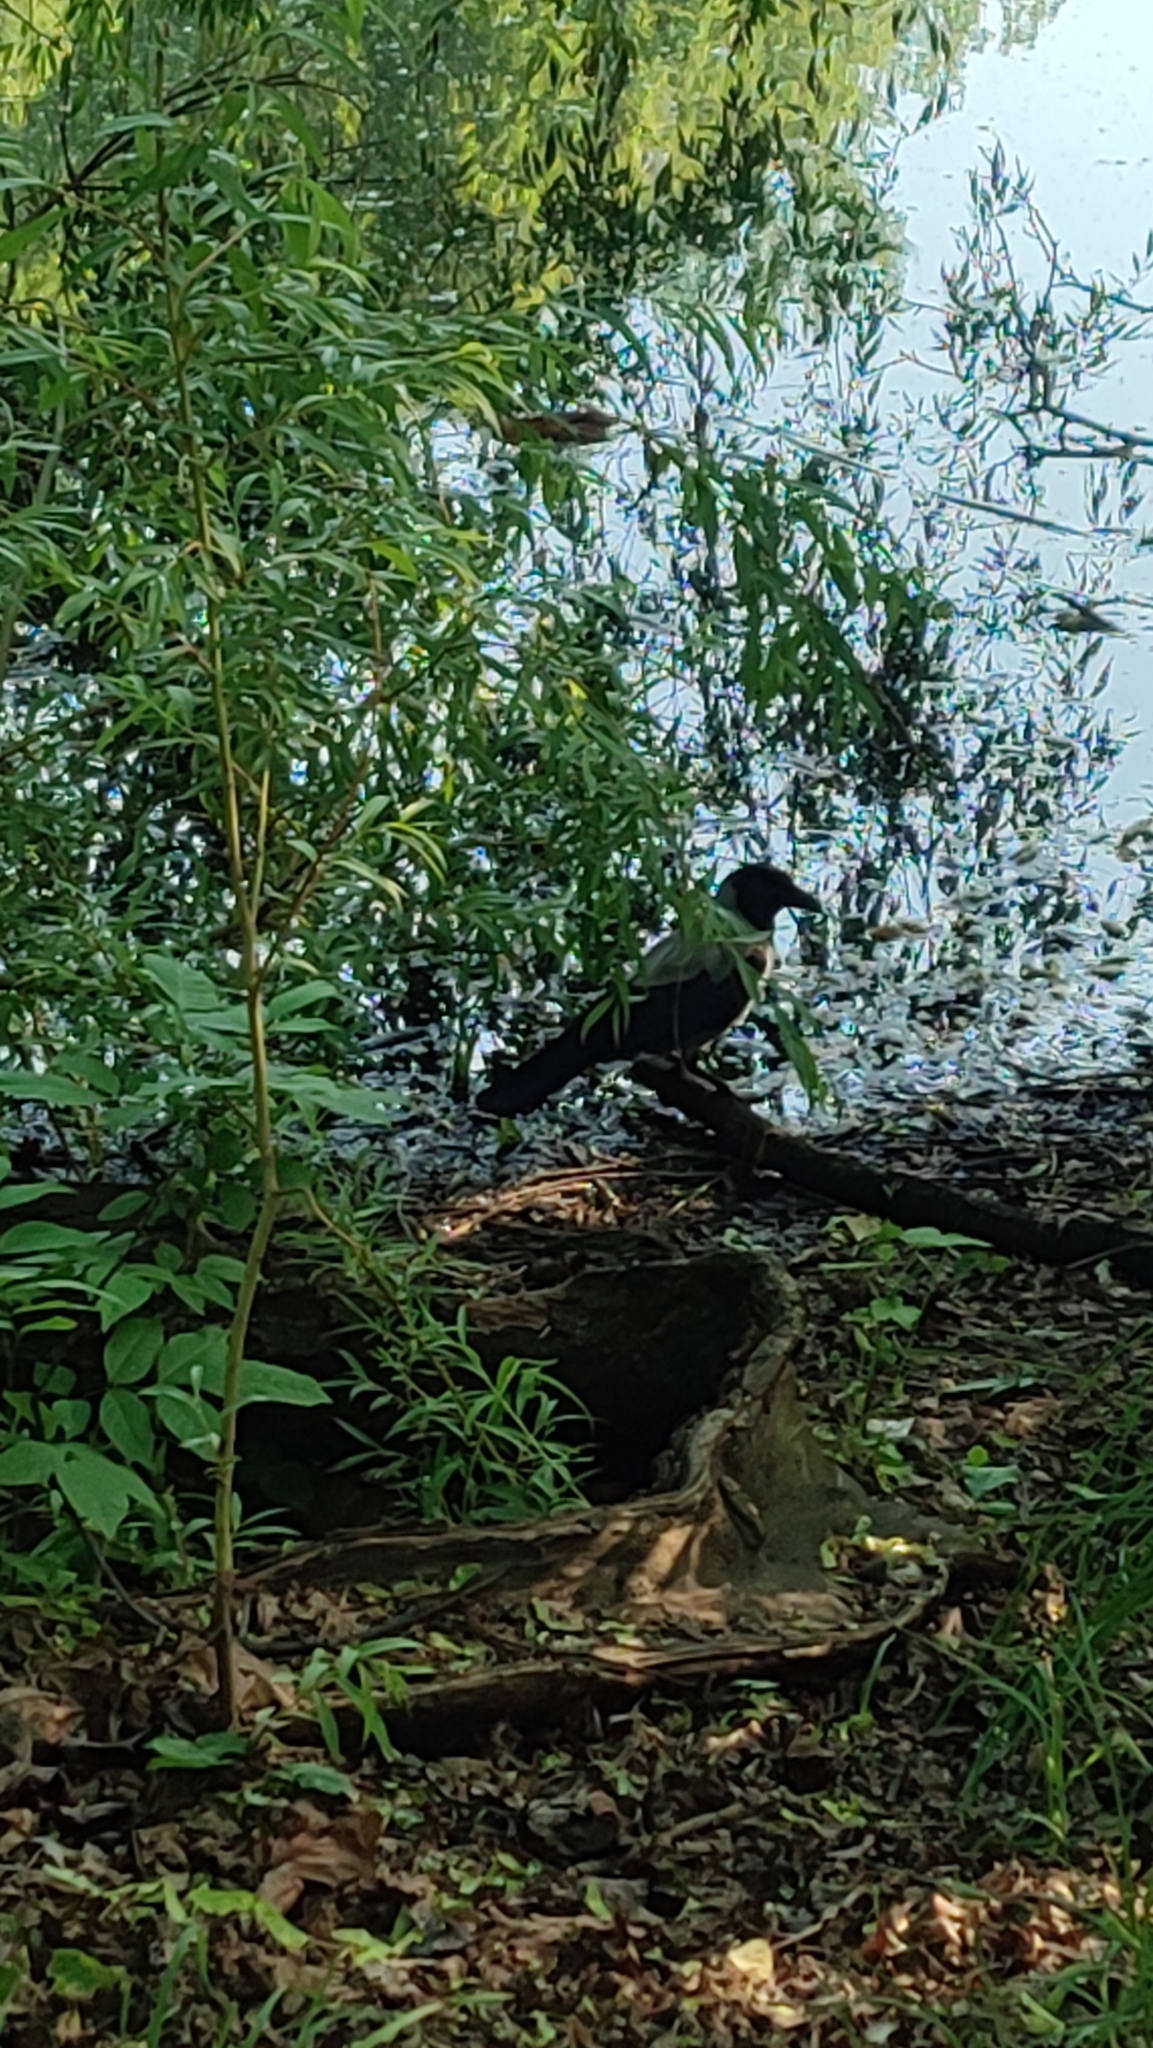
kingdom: Animalia
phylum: Chordata
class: Aves
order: Passeriformes
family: Corvidae
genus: Corvus
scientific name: Corvus cornix
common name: Hooded crow
